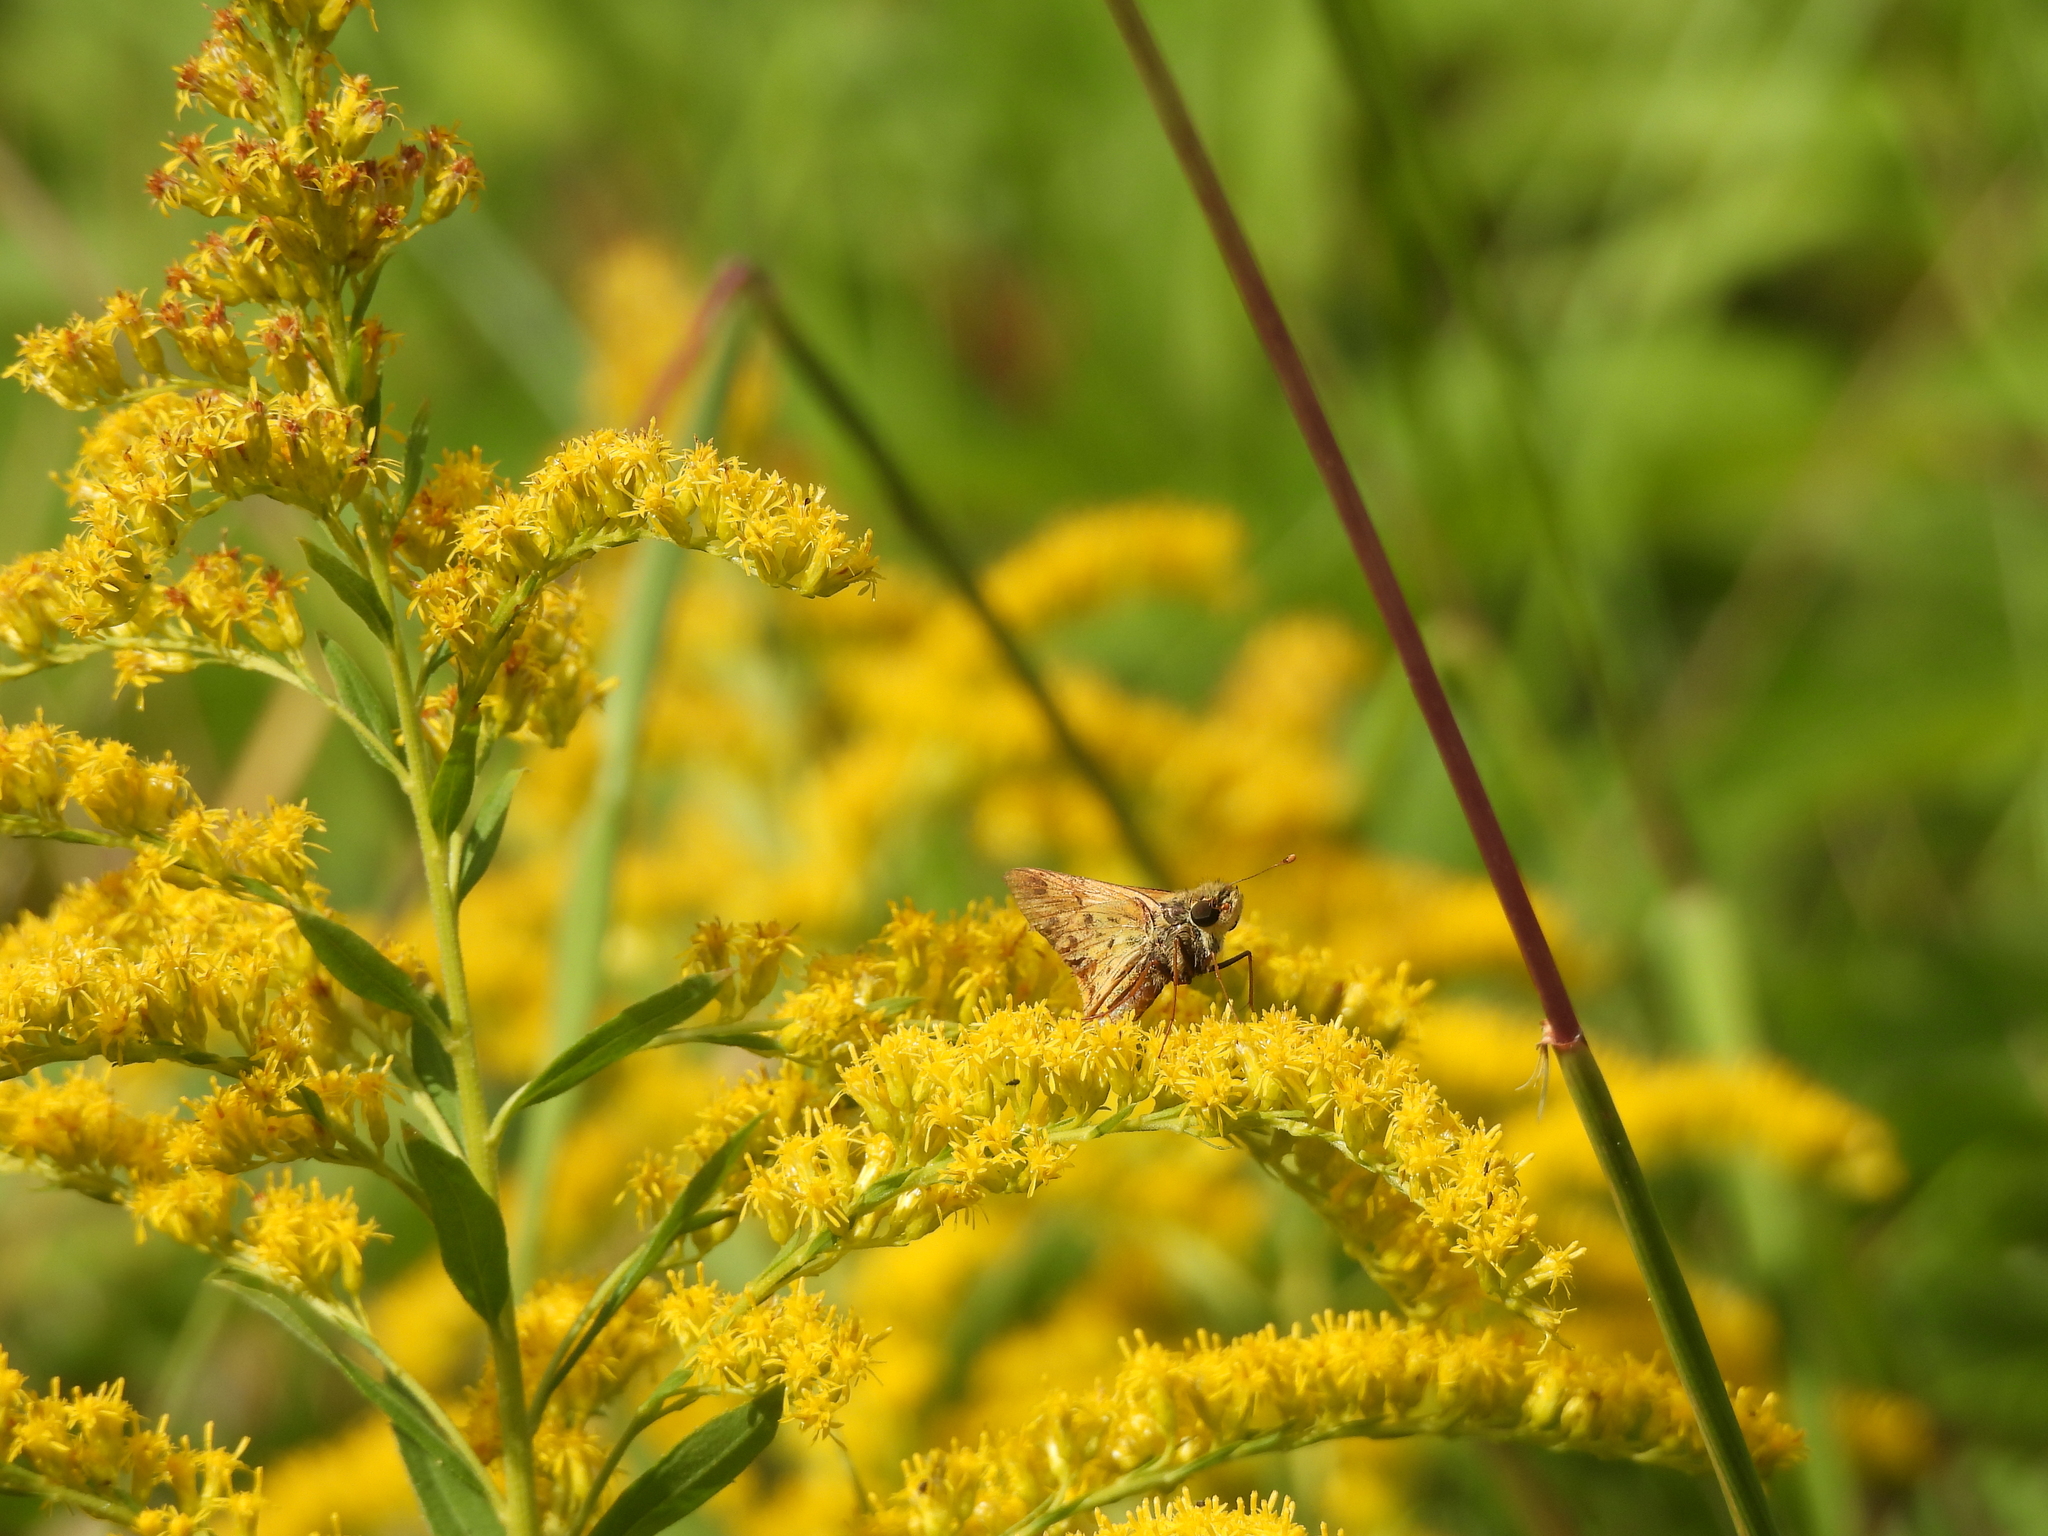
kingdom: Animalia
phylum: Arthropoda
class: Insecta
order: Lepidoptera
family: Hesperiidae
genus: Hylephila
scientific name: Hylephila phyleus
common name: Fiery skipper
